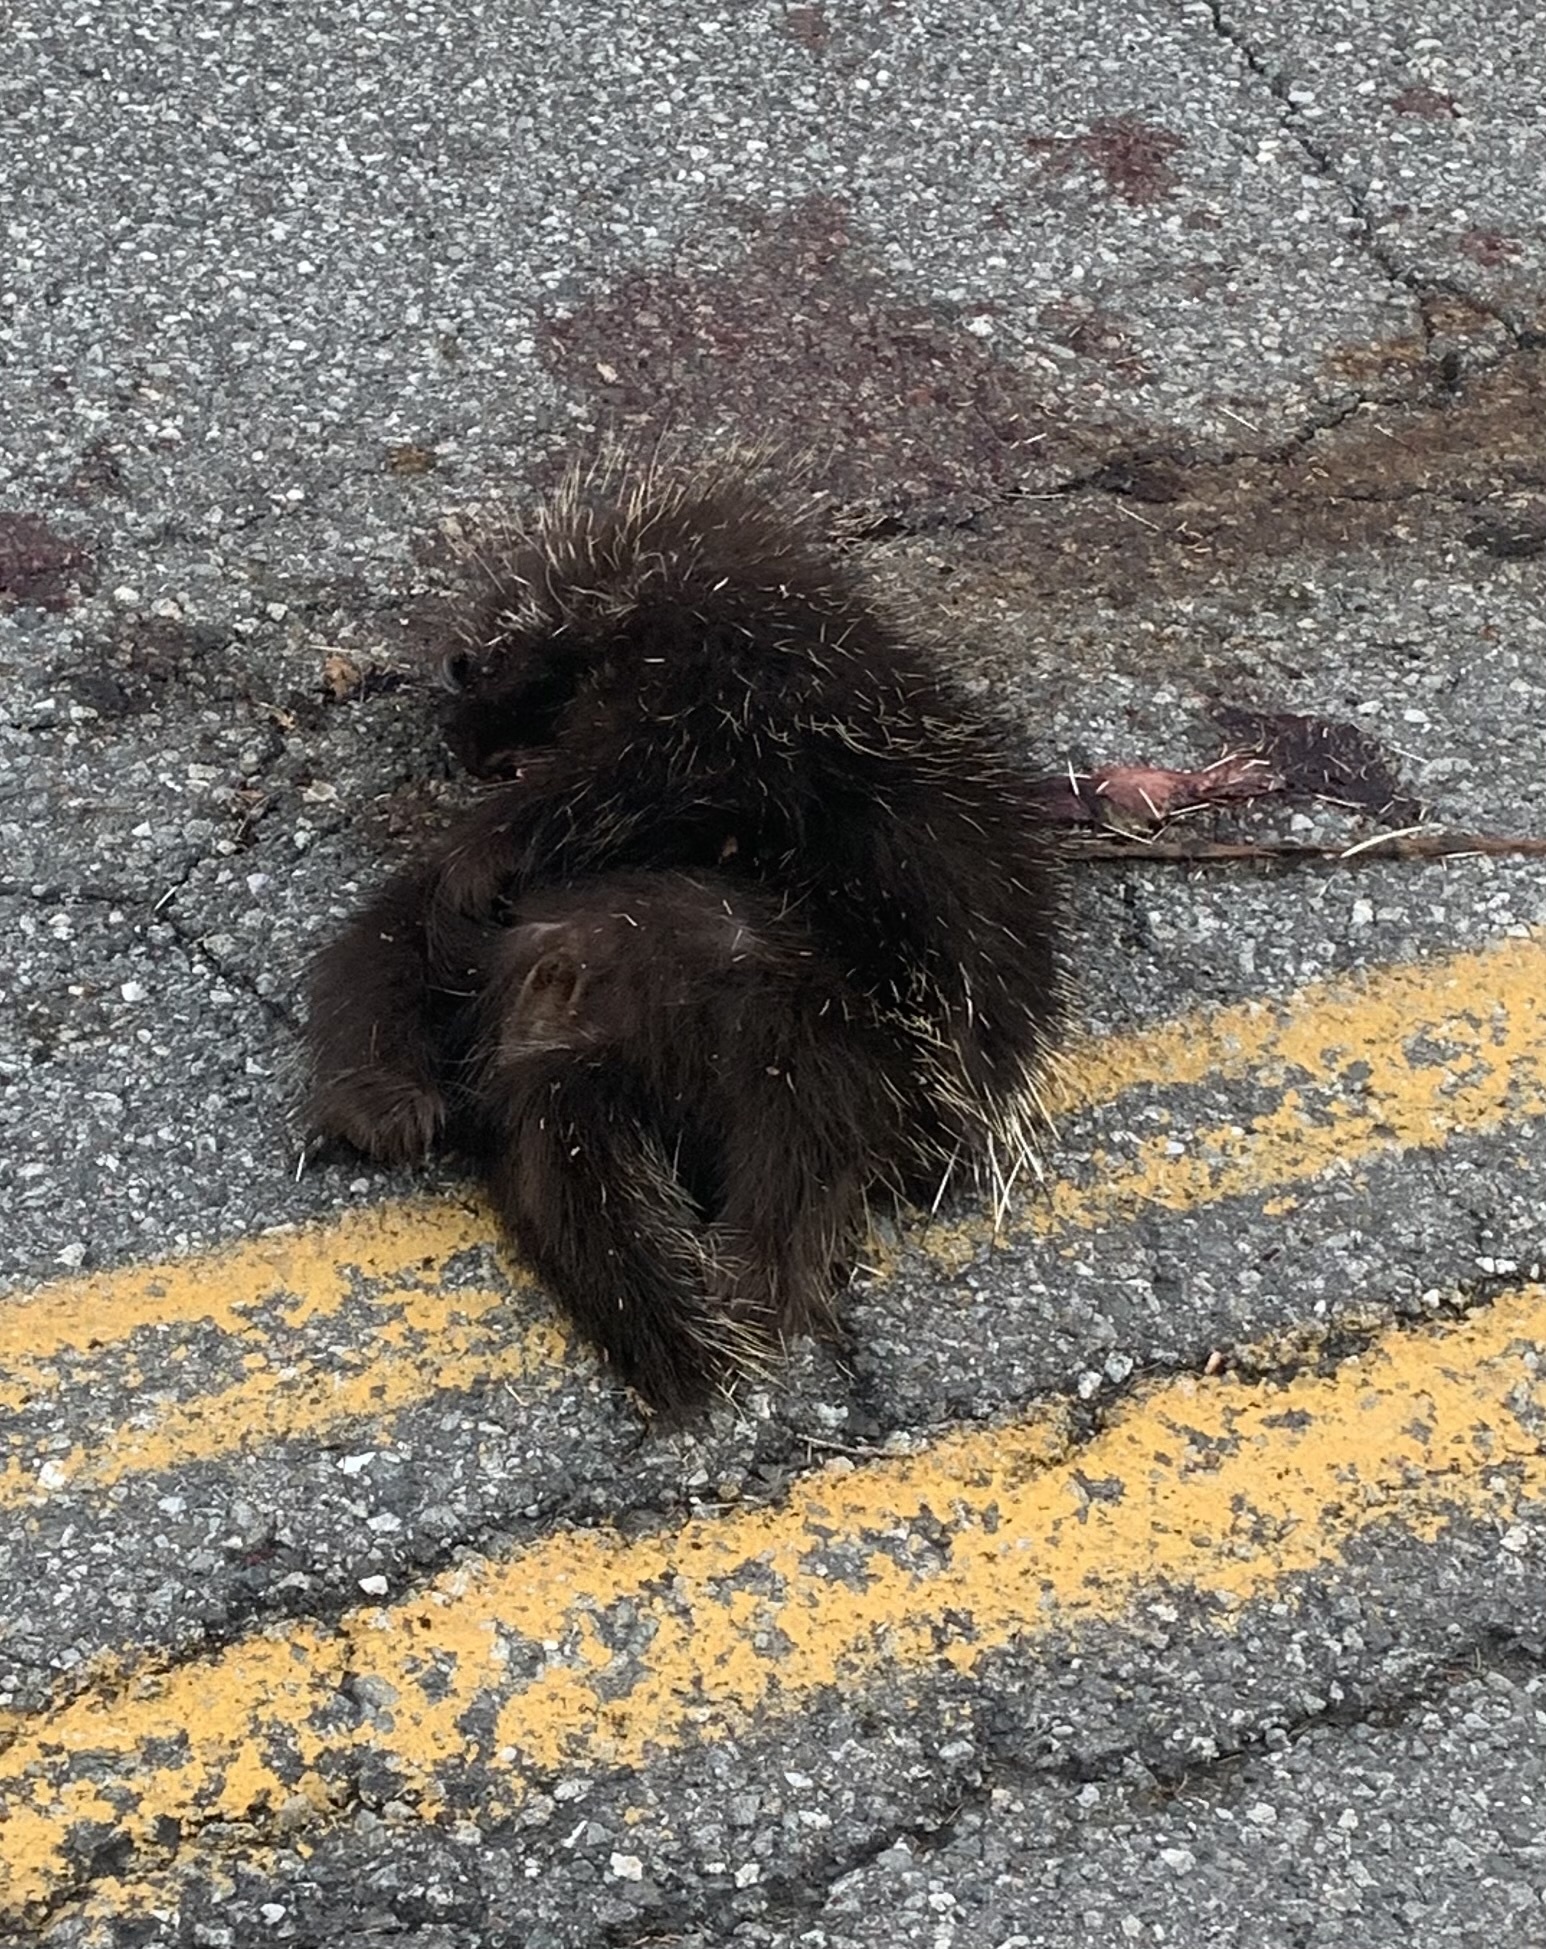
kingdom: Animalia
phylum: Chordata
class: Mammalia
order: Rodentia
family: Erethizontidae
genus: Erethizon
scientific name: Erethizon dorsatus
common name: North american porcupine
